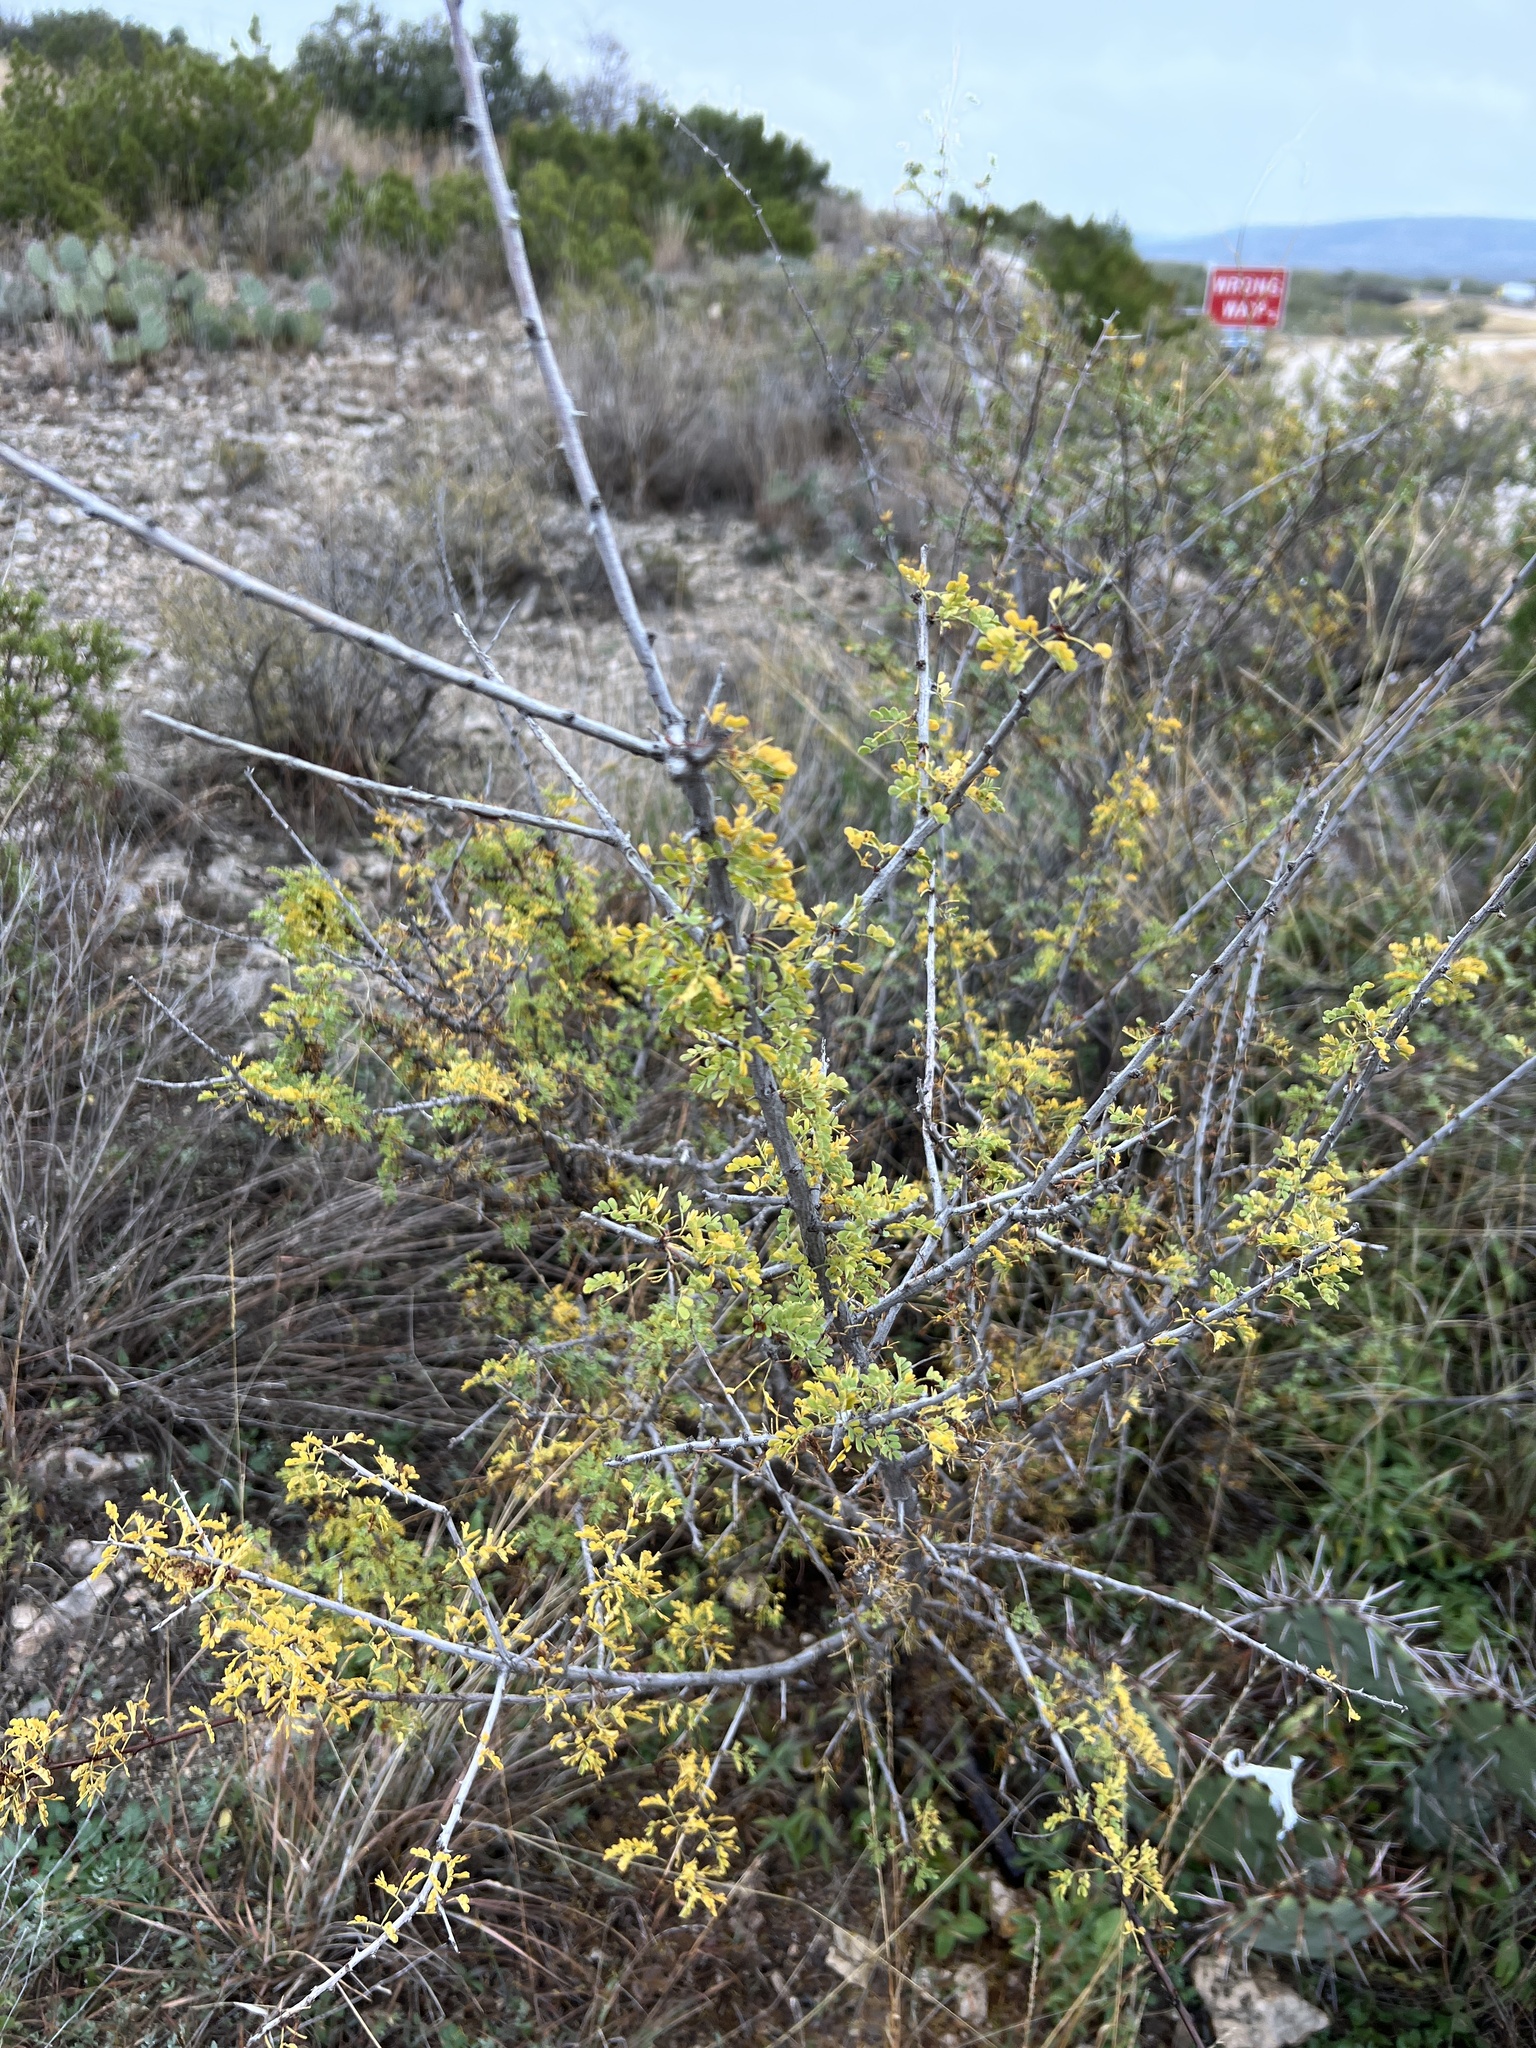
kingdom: Plantae
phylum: Tracheophyta
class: Magnoliopsida
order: Fabales
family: Fabaceae
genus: Senegalia
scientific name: Senegalia greggii
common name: Texas-mimosa
